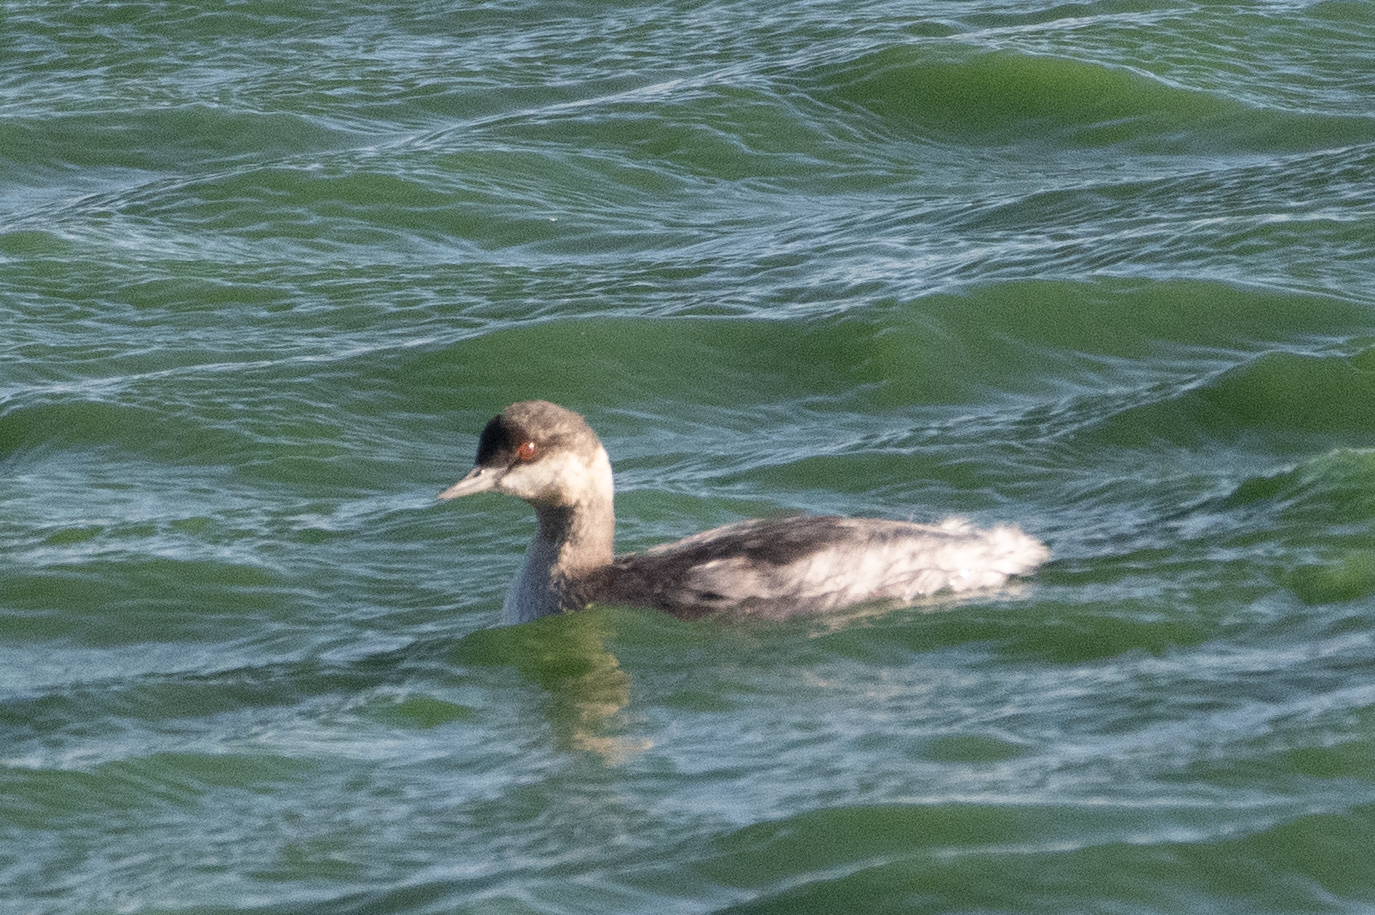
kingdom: Animalia
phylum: Chordata
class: Aves
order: Podicipediformes
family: Podicipedidae
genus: Podiceps
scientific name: Podiceps nigricollis
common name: Black-necked grebe
